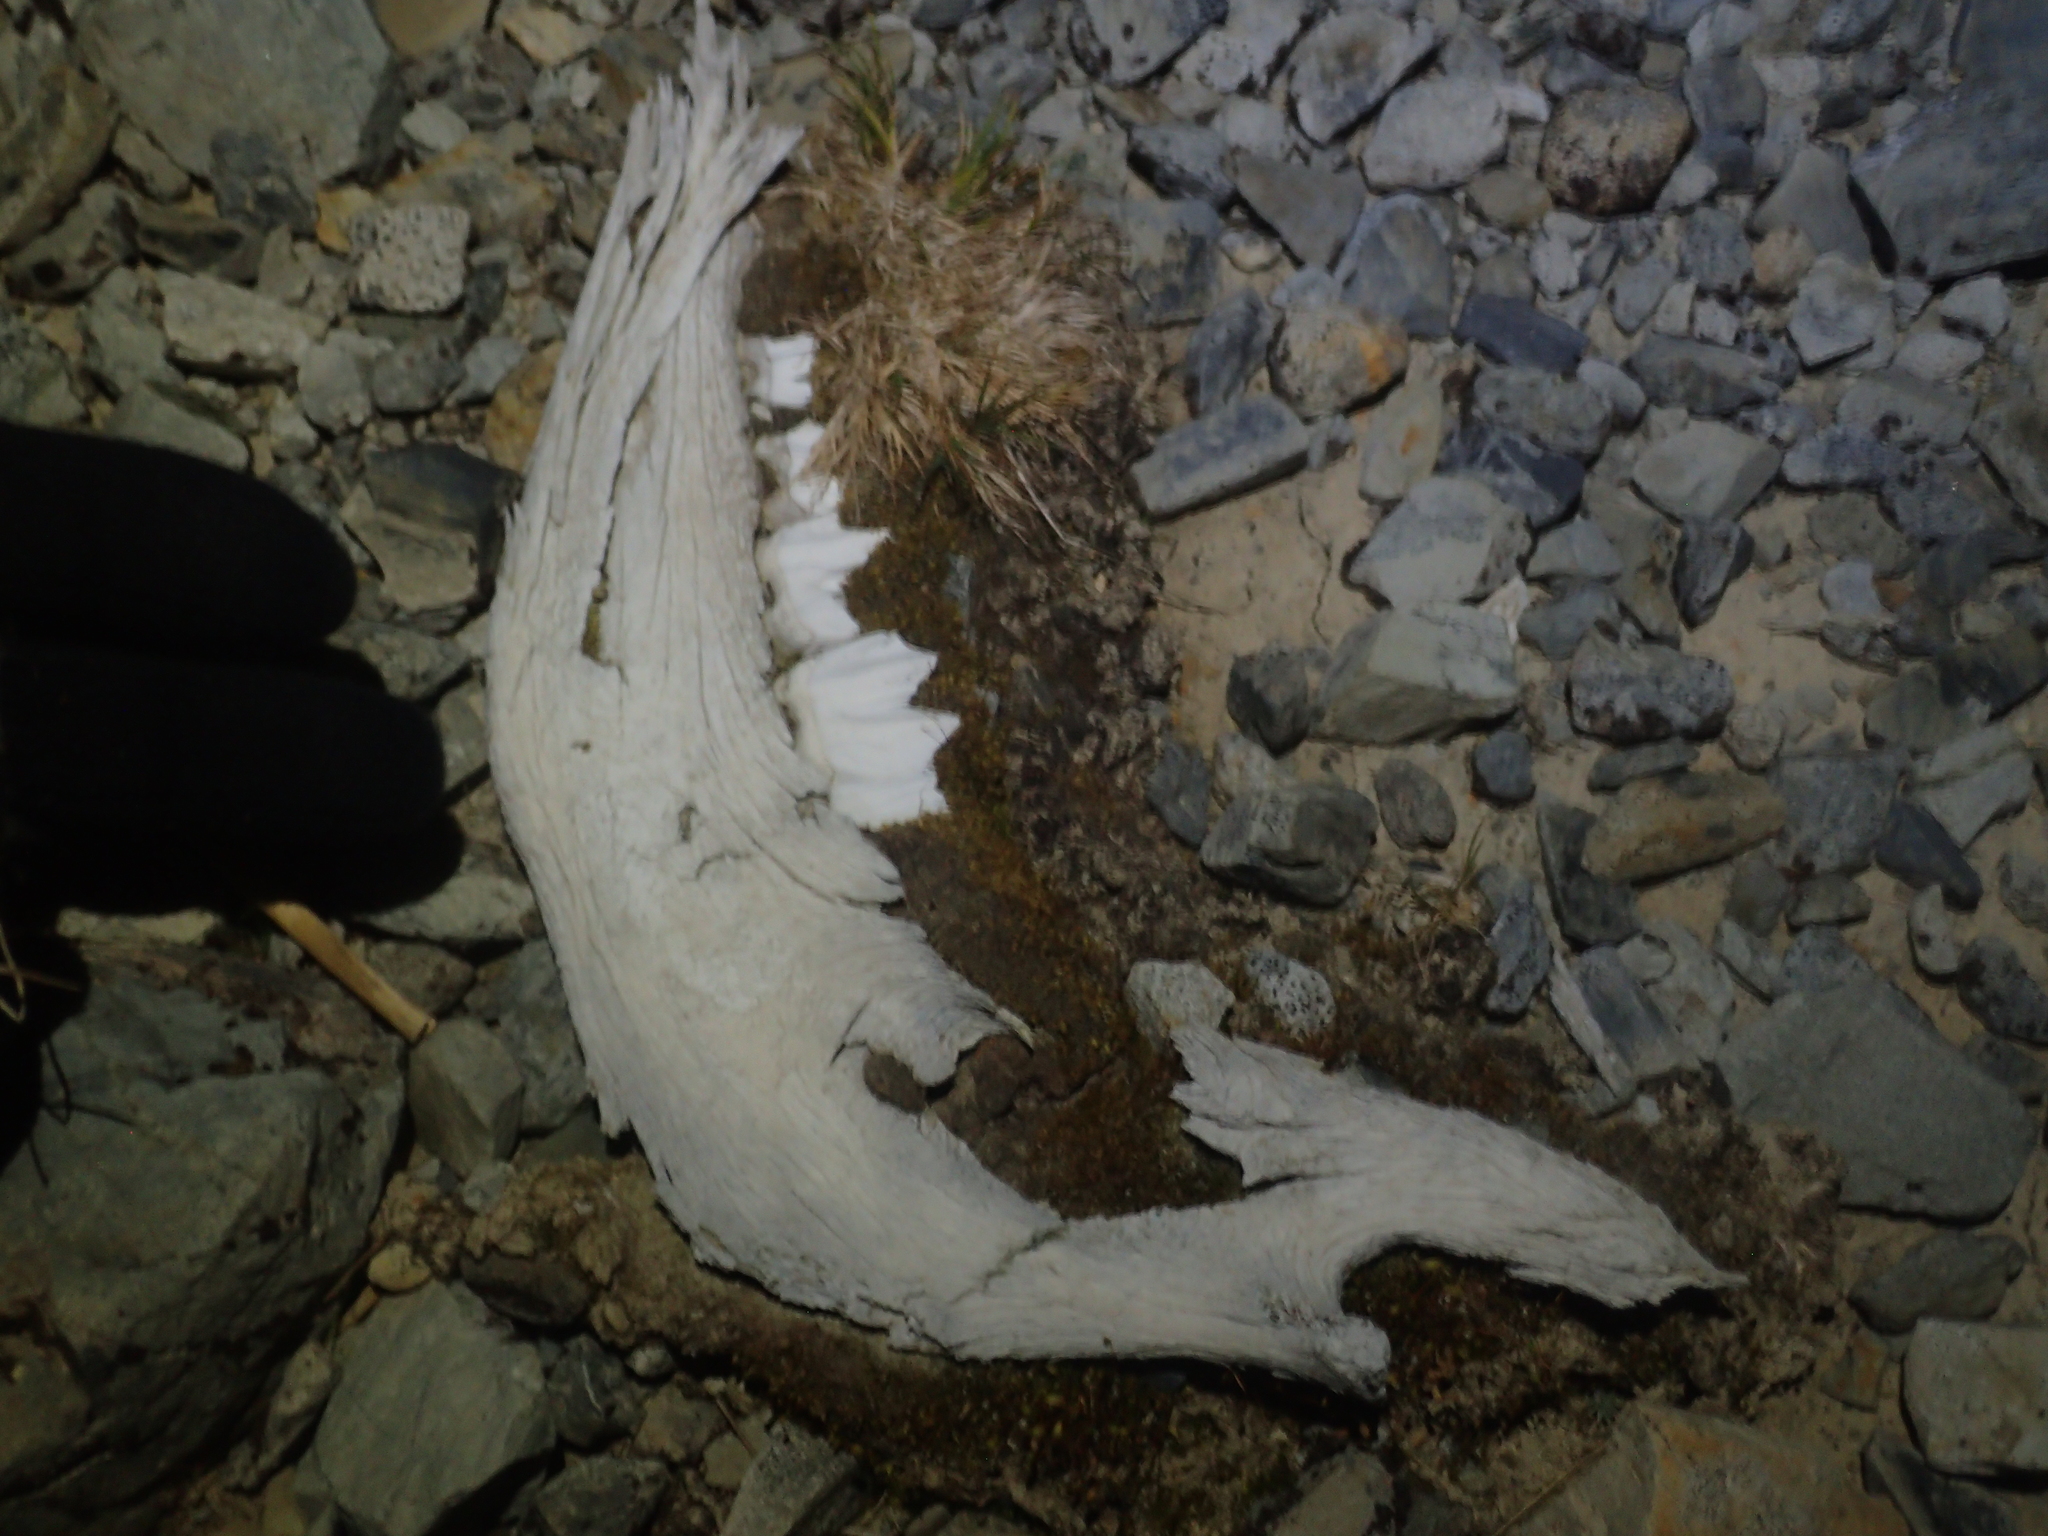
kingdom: Animalia
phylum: Chordata
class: Mammalia
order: Artiodactyla
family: Bovidae
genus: Bos
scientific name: Bos taurus
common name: Domesticated cattle
